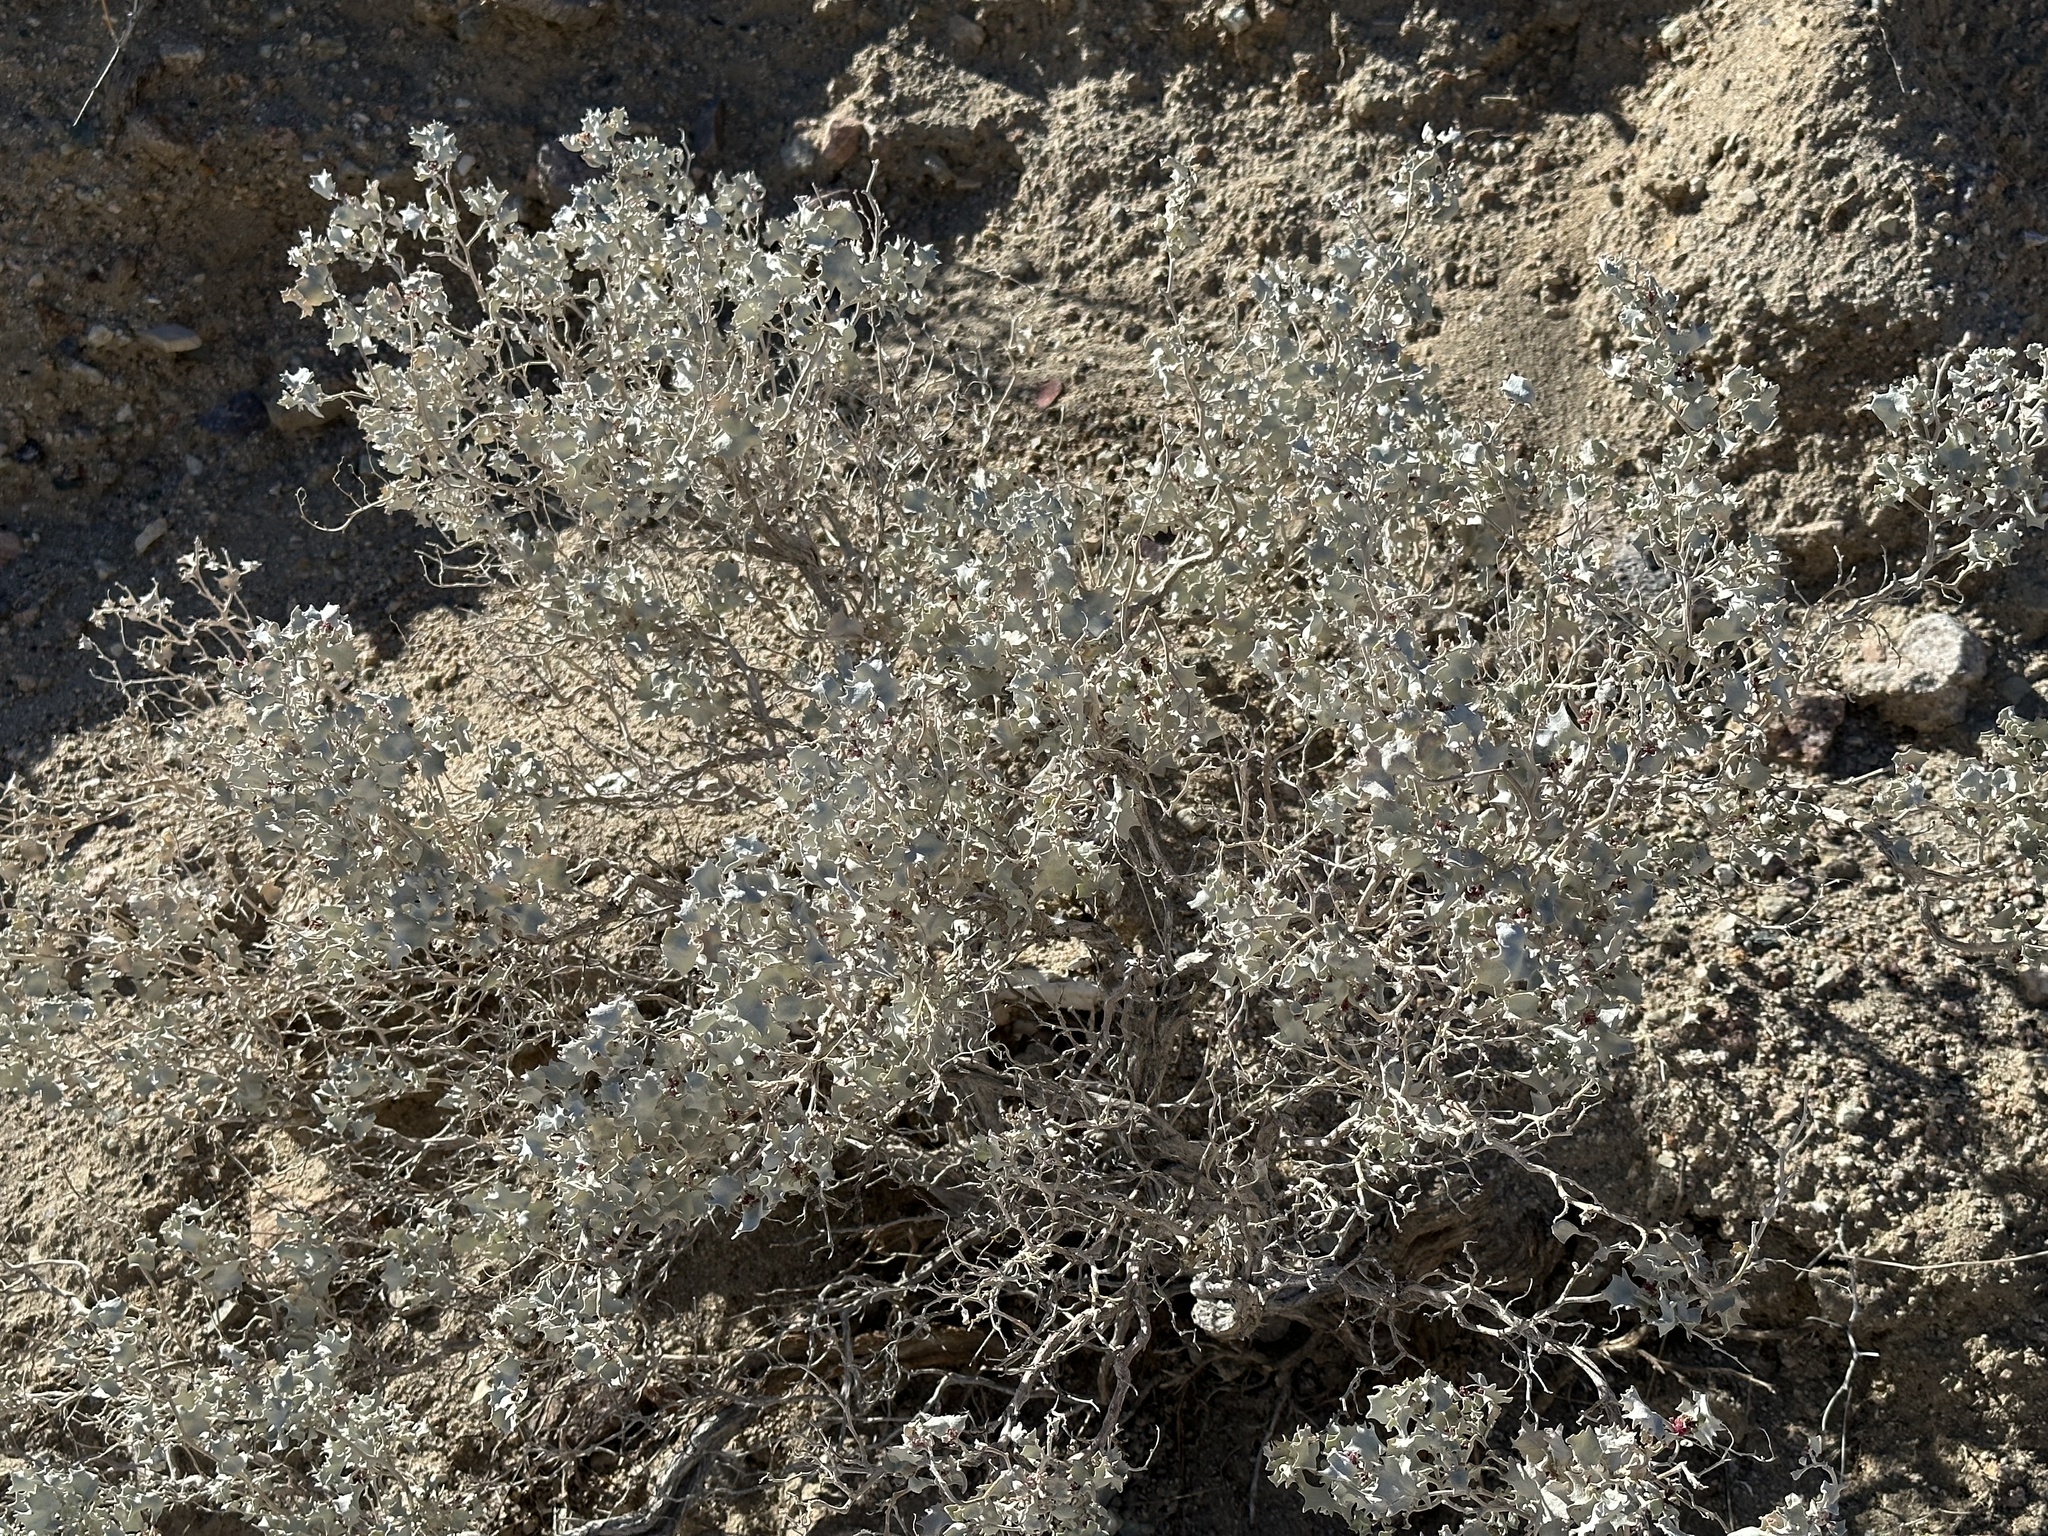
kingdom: Plantae
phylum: Tracheophyta
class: Magnoliopsida
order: Caryophyllales
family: Amaranthaceae
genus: Atriplex
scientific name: Atriplex hymenelytra
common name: Desert-holly
